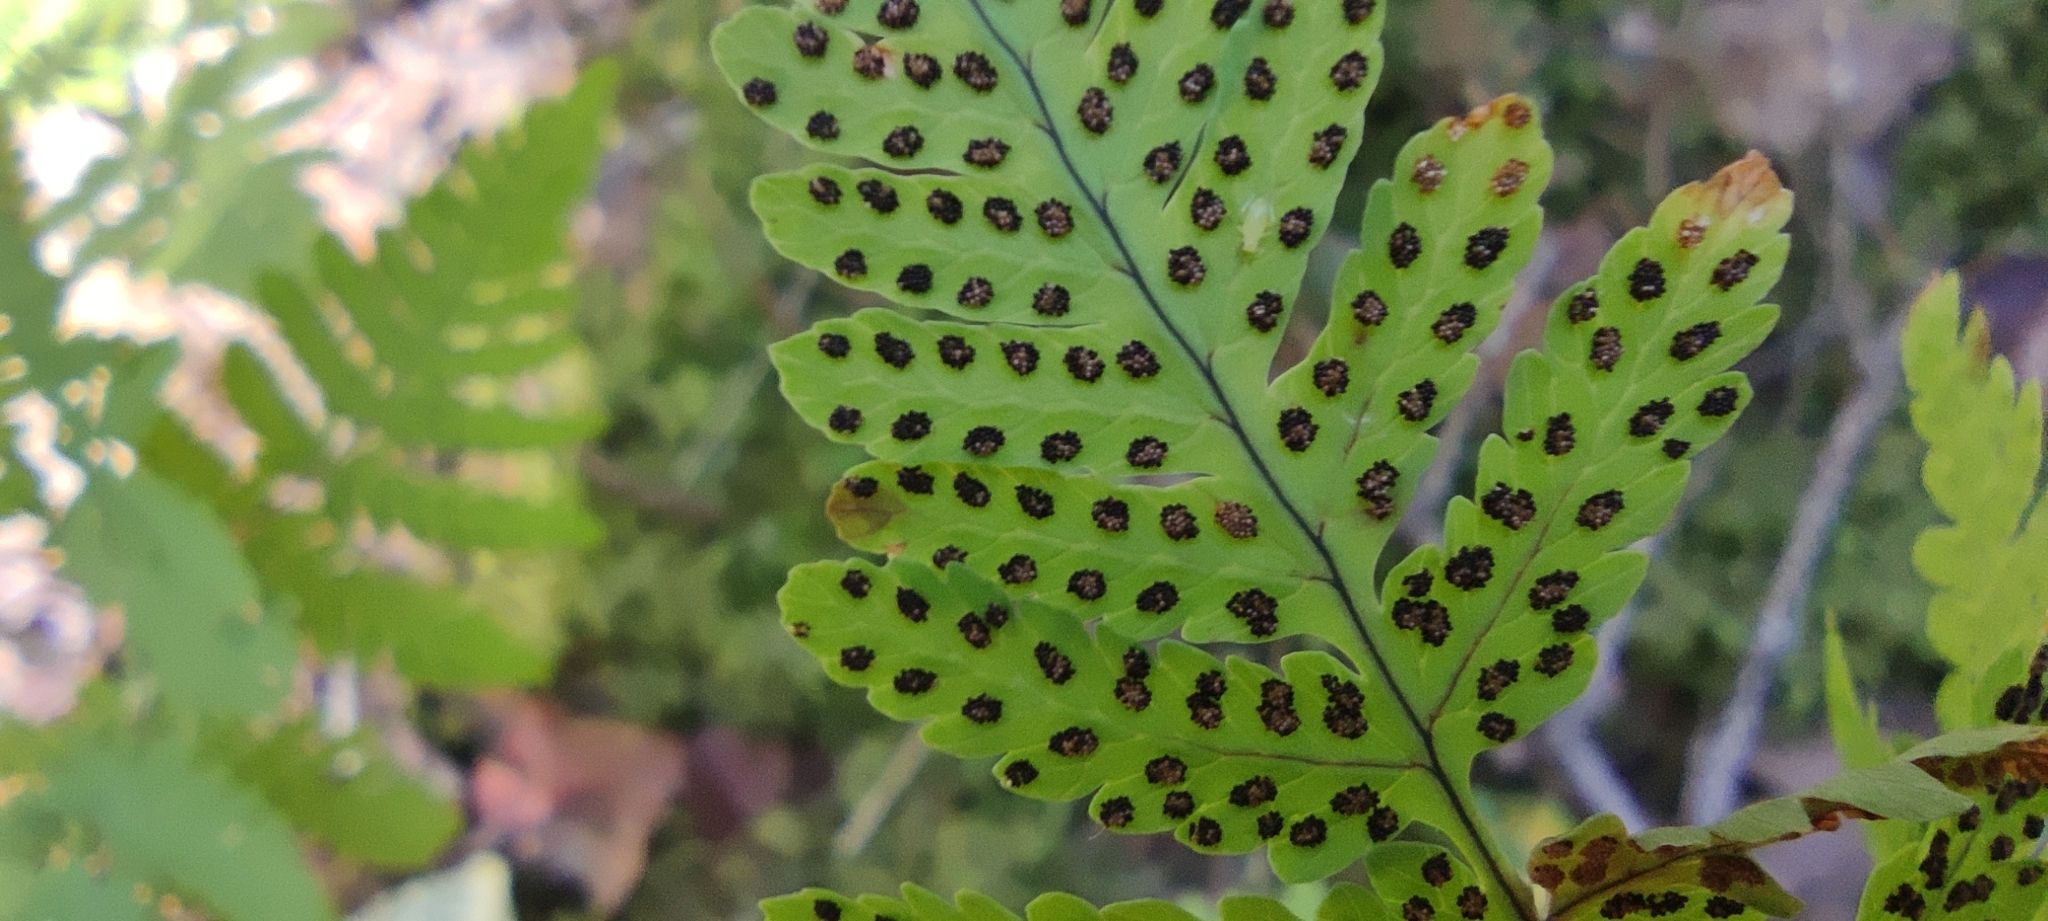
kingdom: Plantae
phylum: Tracheophyta
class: Polypodiopsida
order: Polypodiales
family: Cystopteridaceae
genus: Gymnocarpium
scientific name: Gymnocarpium dryopteris
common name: Oak fern
